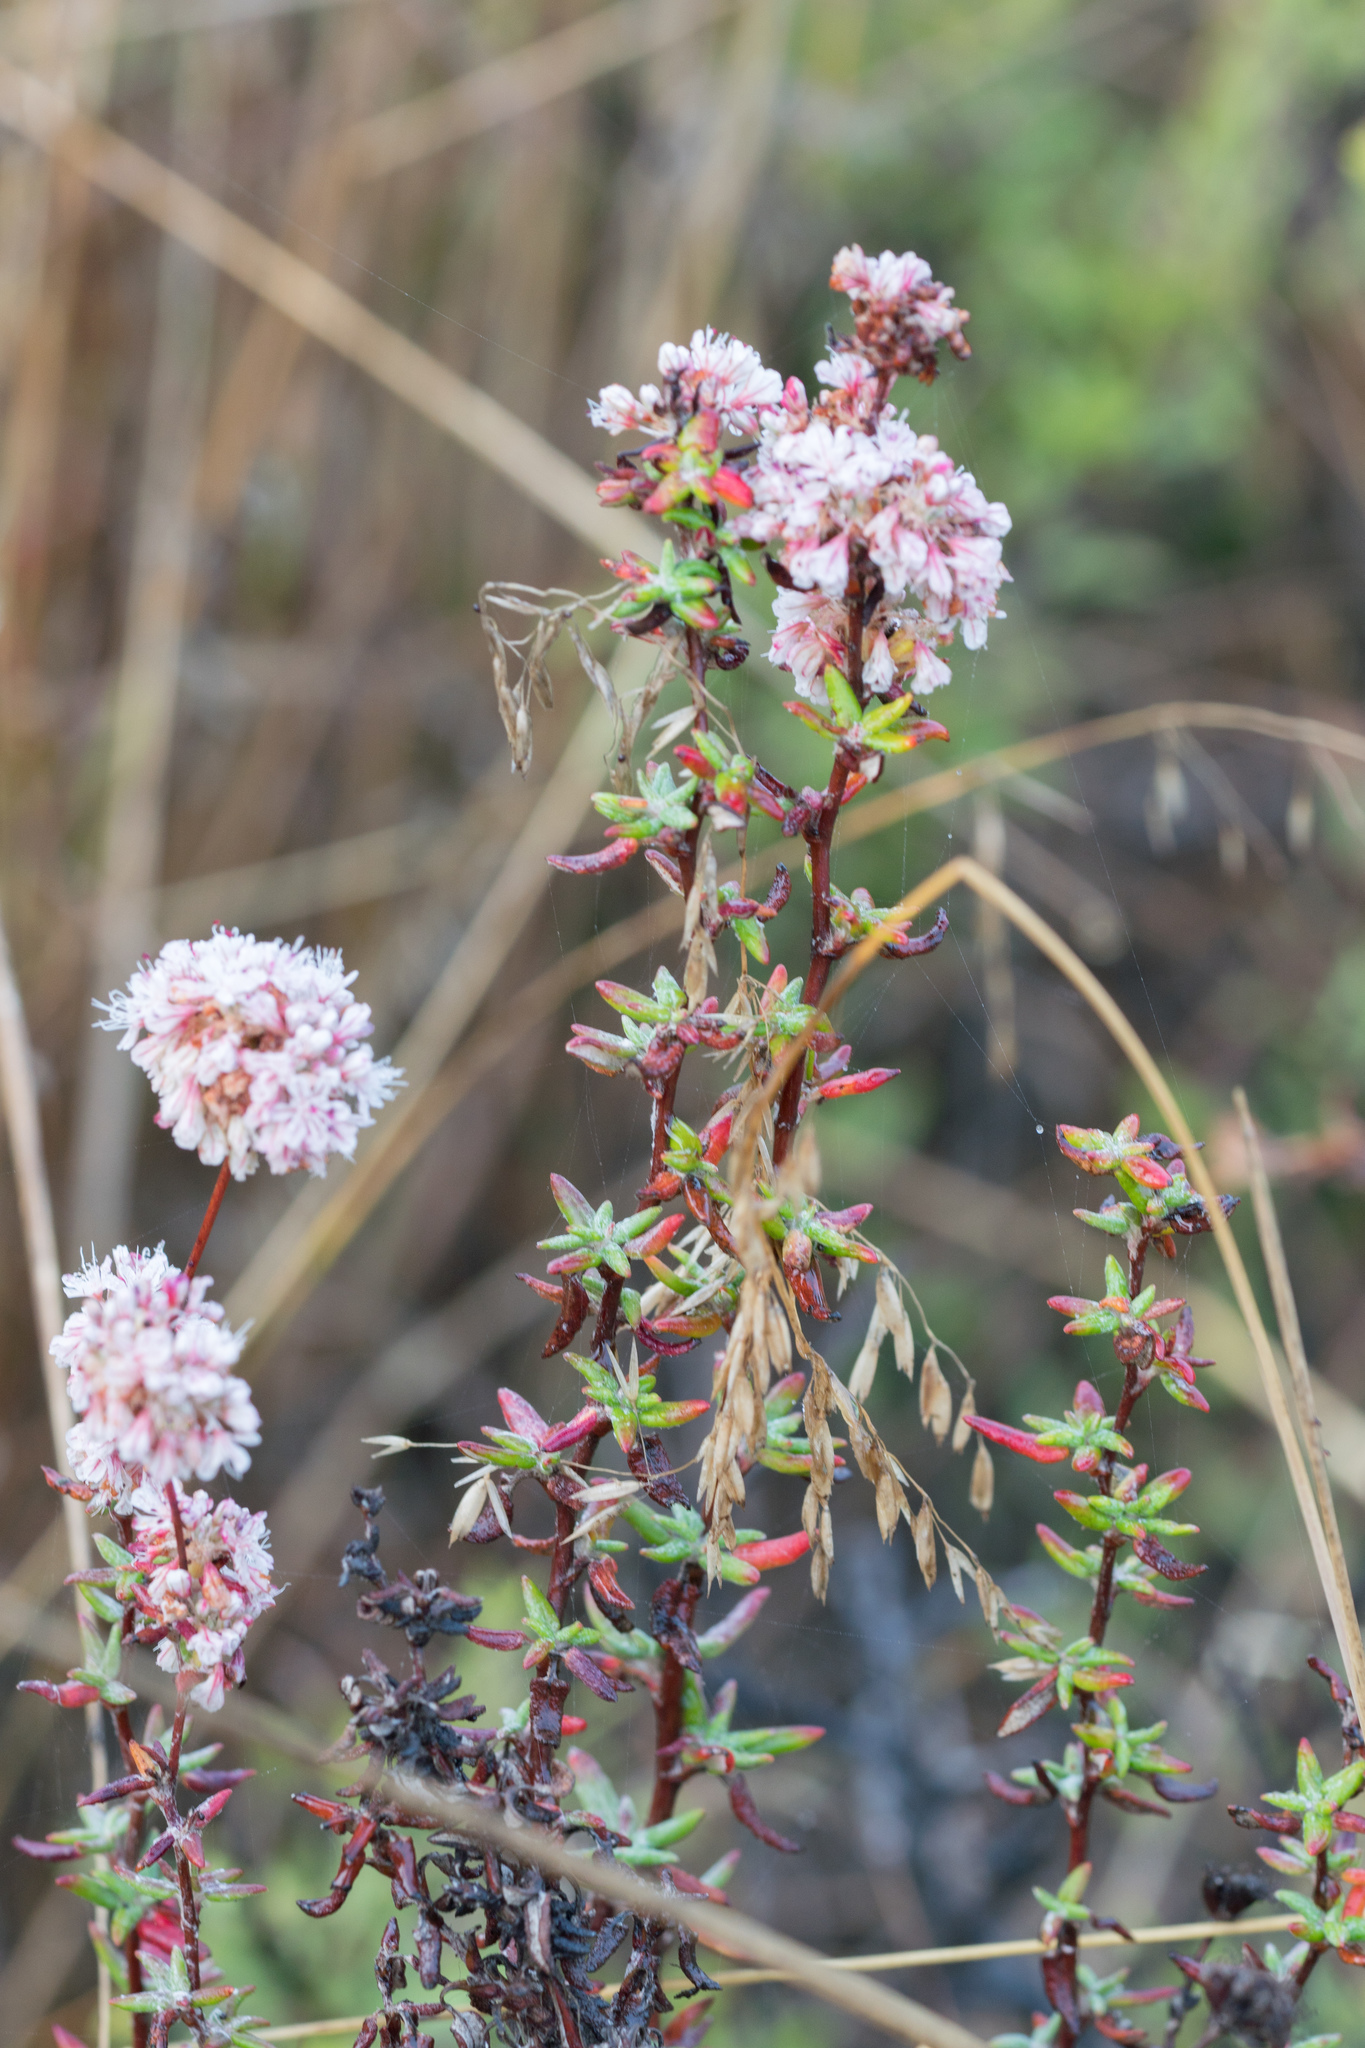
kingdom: Plantae
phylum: Tracheophyta
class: Magnoliopsida
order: Caryophyllales
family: Polygonaceae
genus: Eriogonum
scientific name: Eriogonum parvifolium
